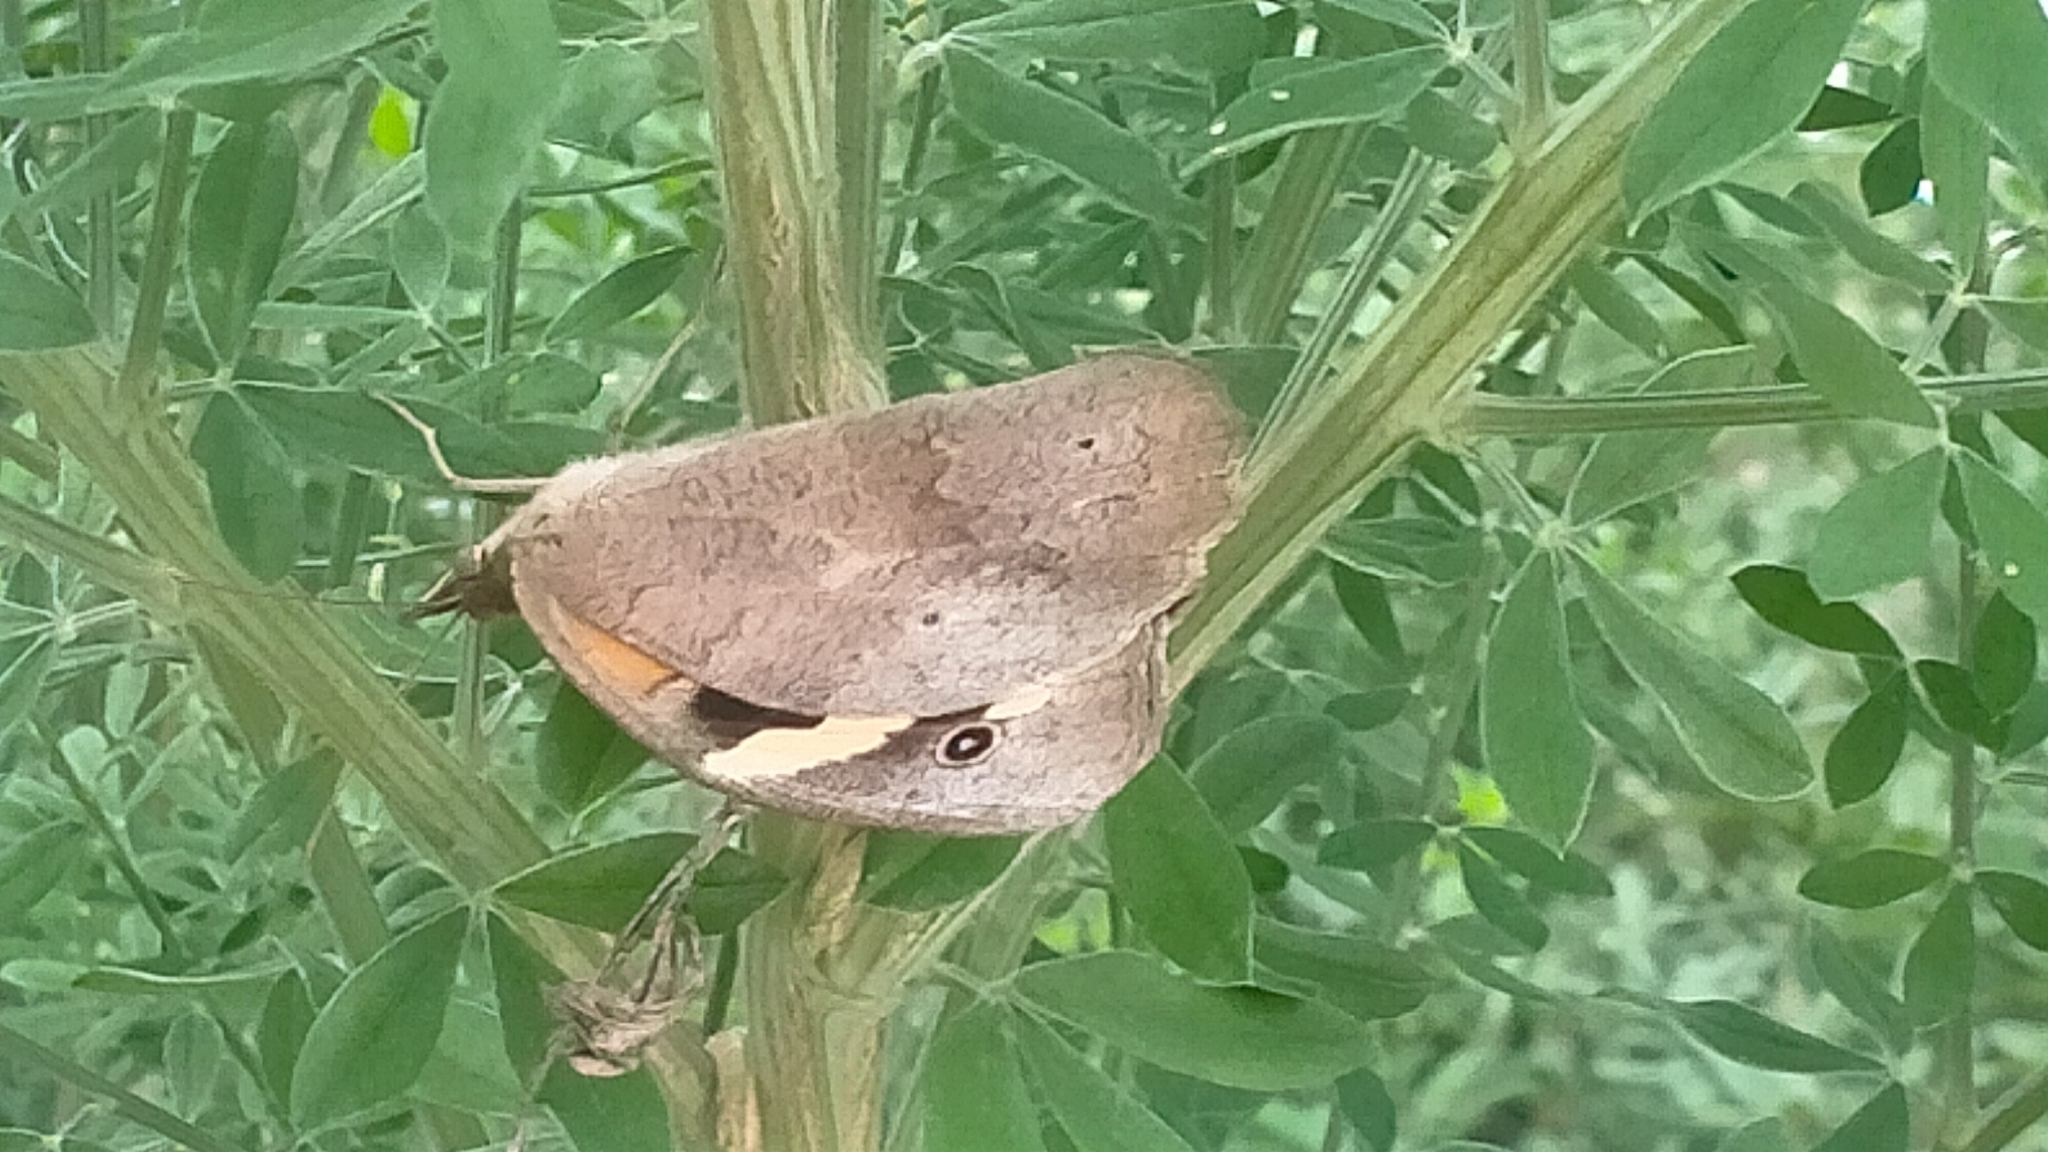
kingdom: Animalia
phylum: Arthropoda
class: Insecta
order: Lepidoptera
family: Nymphalidae
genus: Heteronympha
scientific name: Heteronympha merope
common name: Common brown
